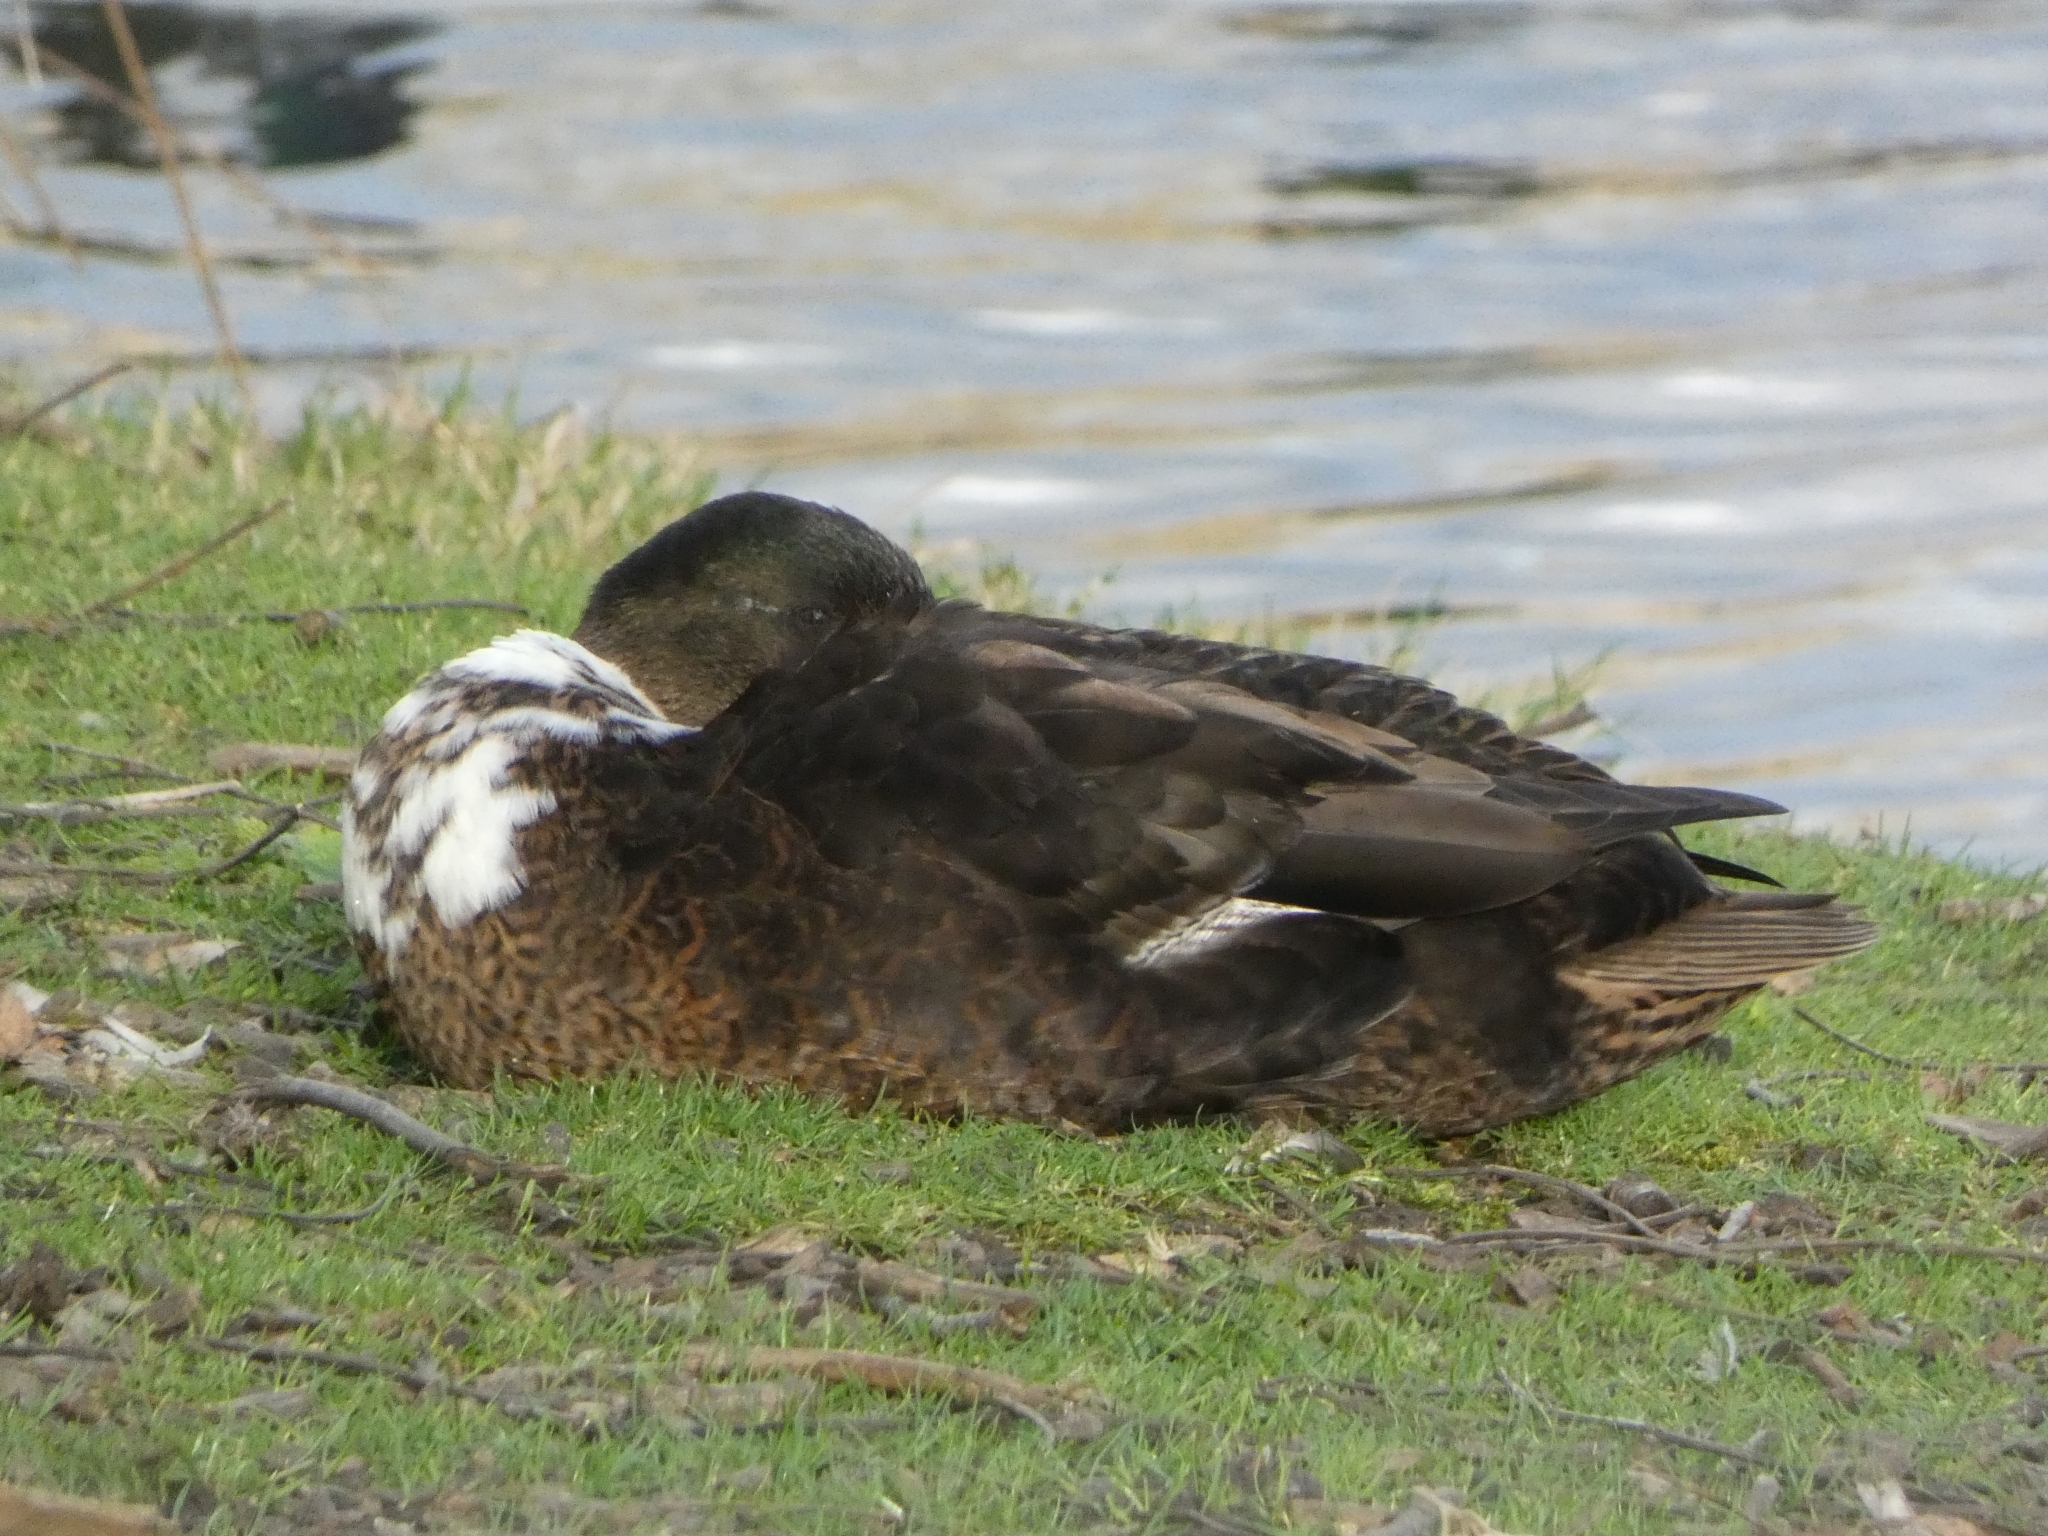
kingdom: Animalia
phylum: Chordata
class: Aves
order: Anseriformes
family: Anatidae
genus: Anas
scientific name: Anas platyrhynchos
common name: Mallard
